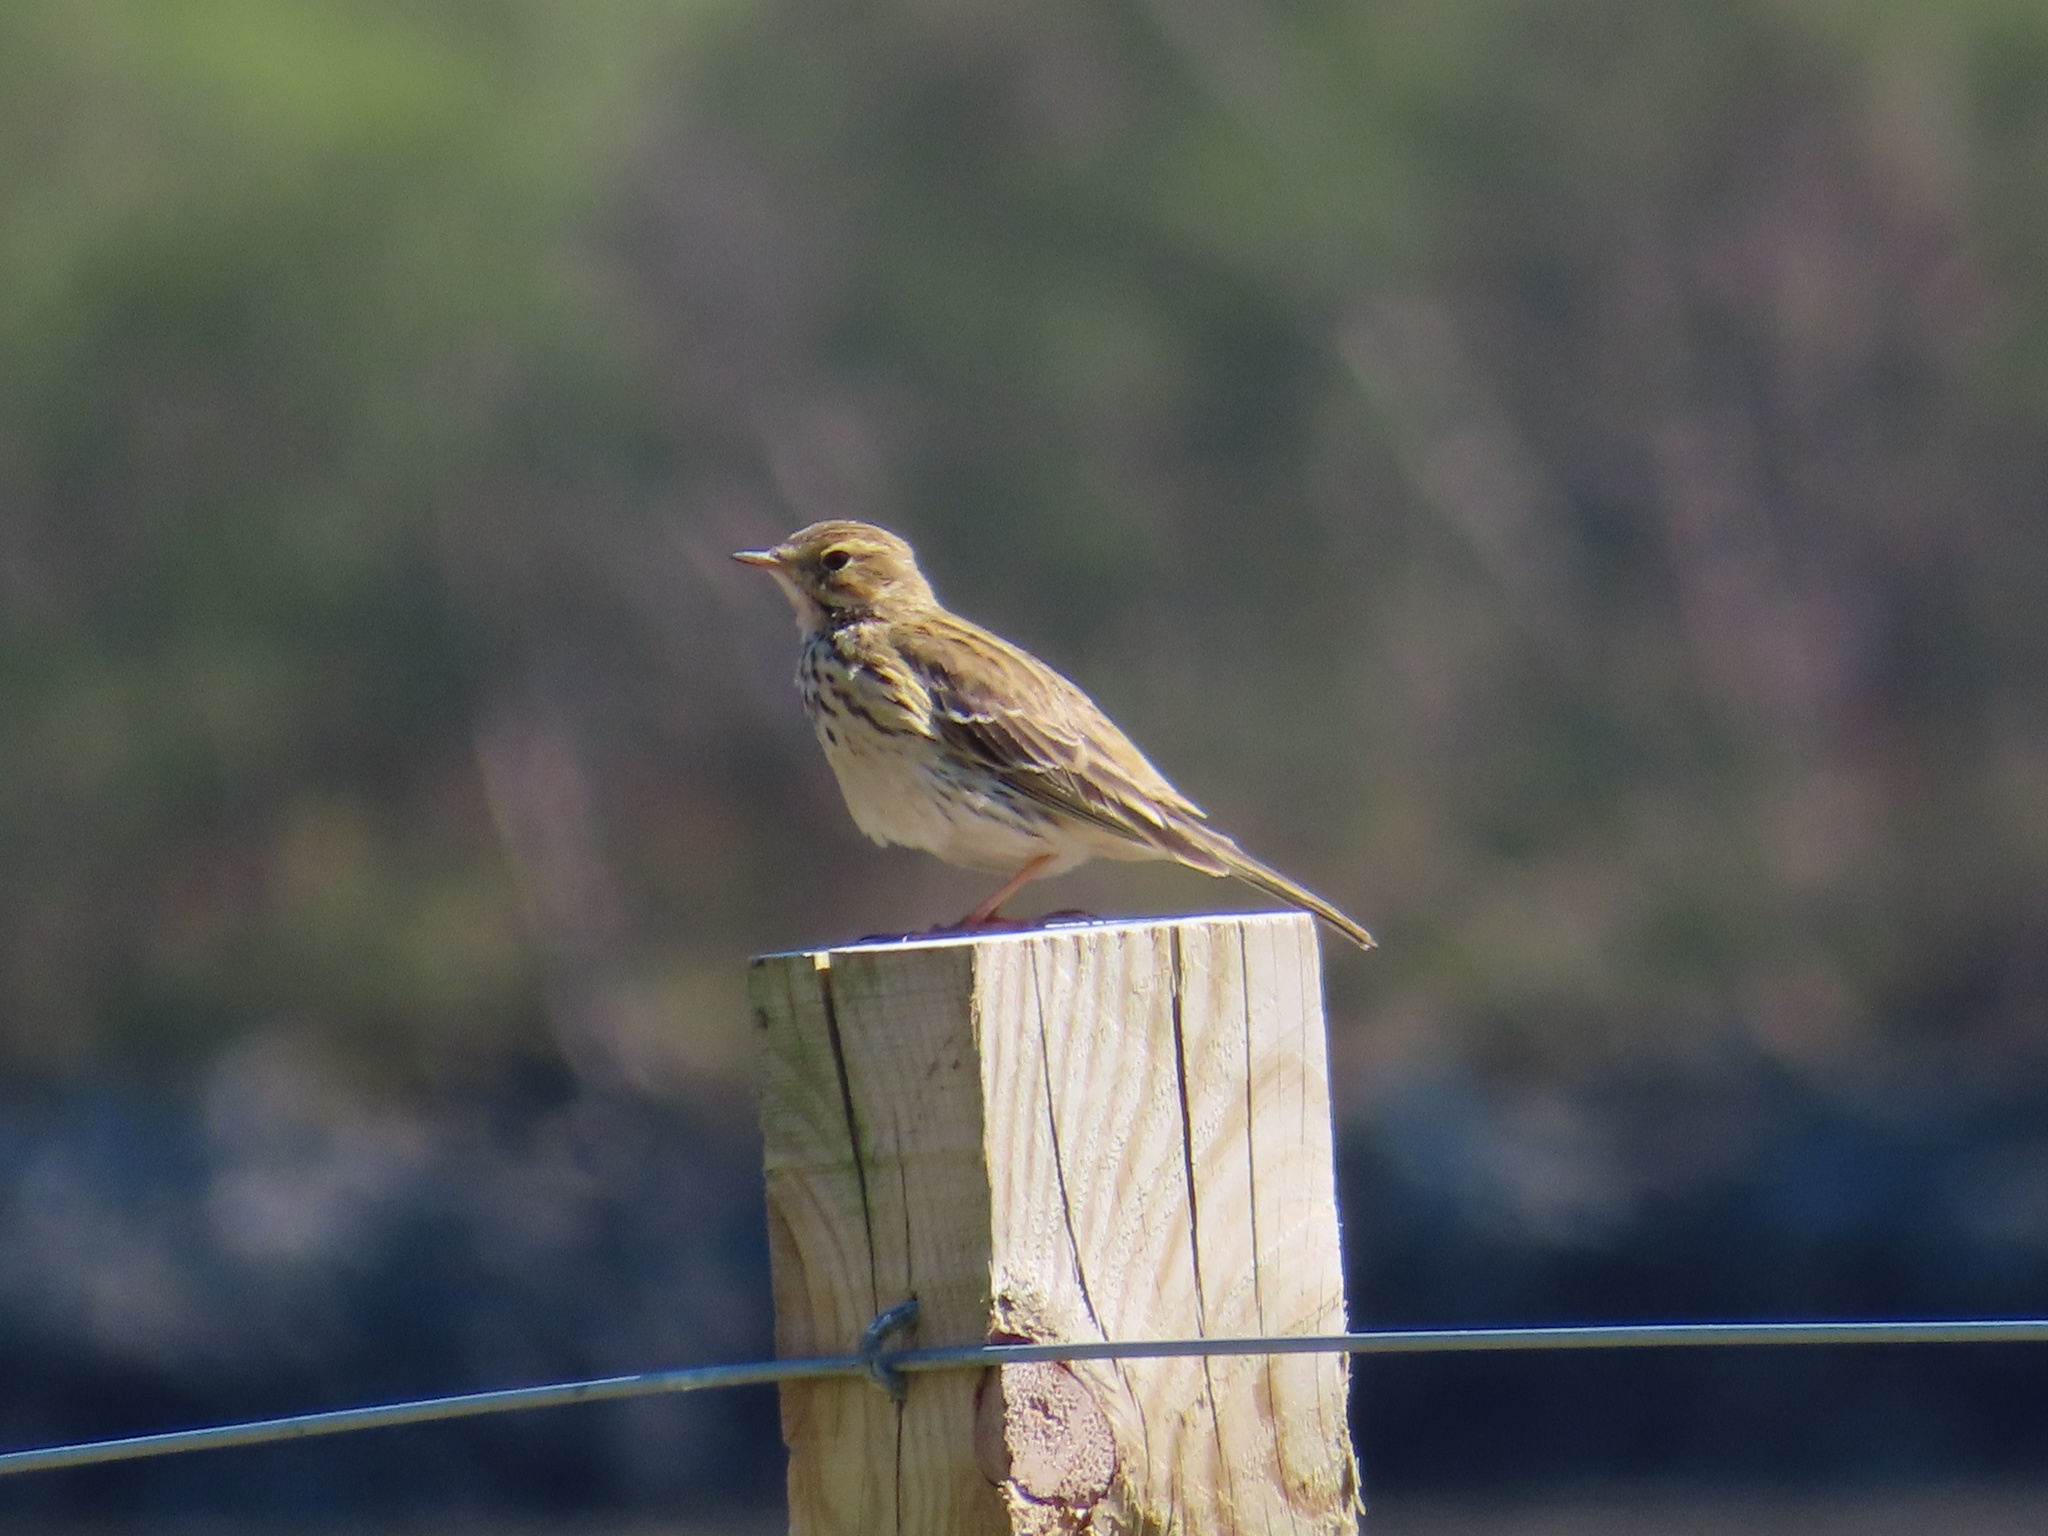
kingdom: Animalia
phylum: Chordata
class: Aves
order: Passeriformes
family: Motacillidae
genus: Anthus
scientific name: Anthus pratensis
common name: Meadow pipit
